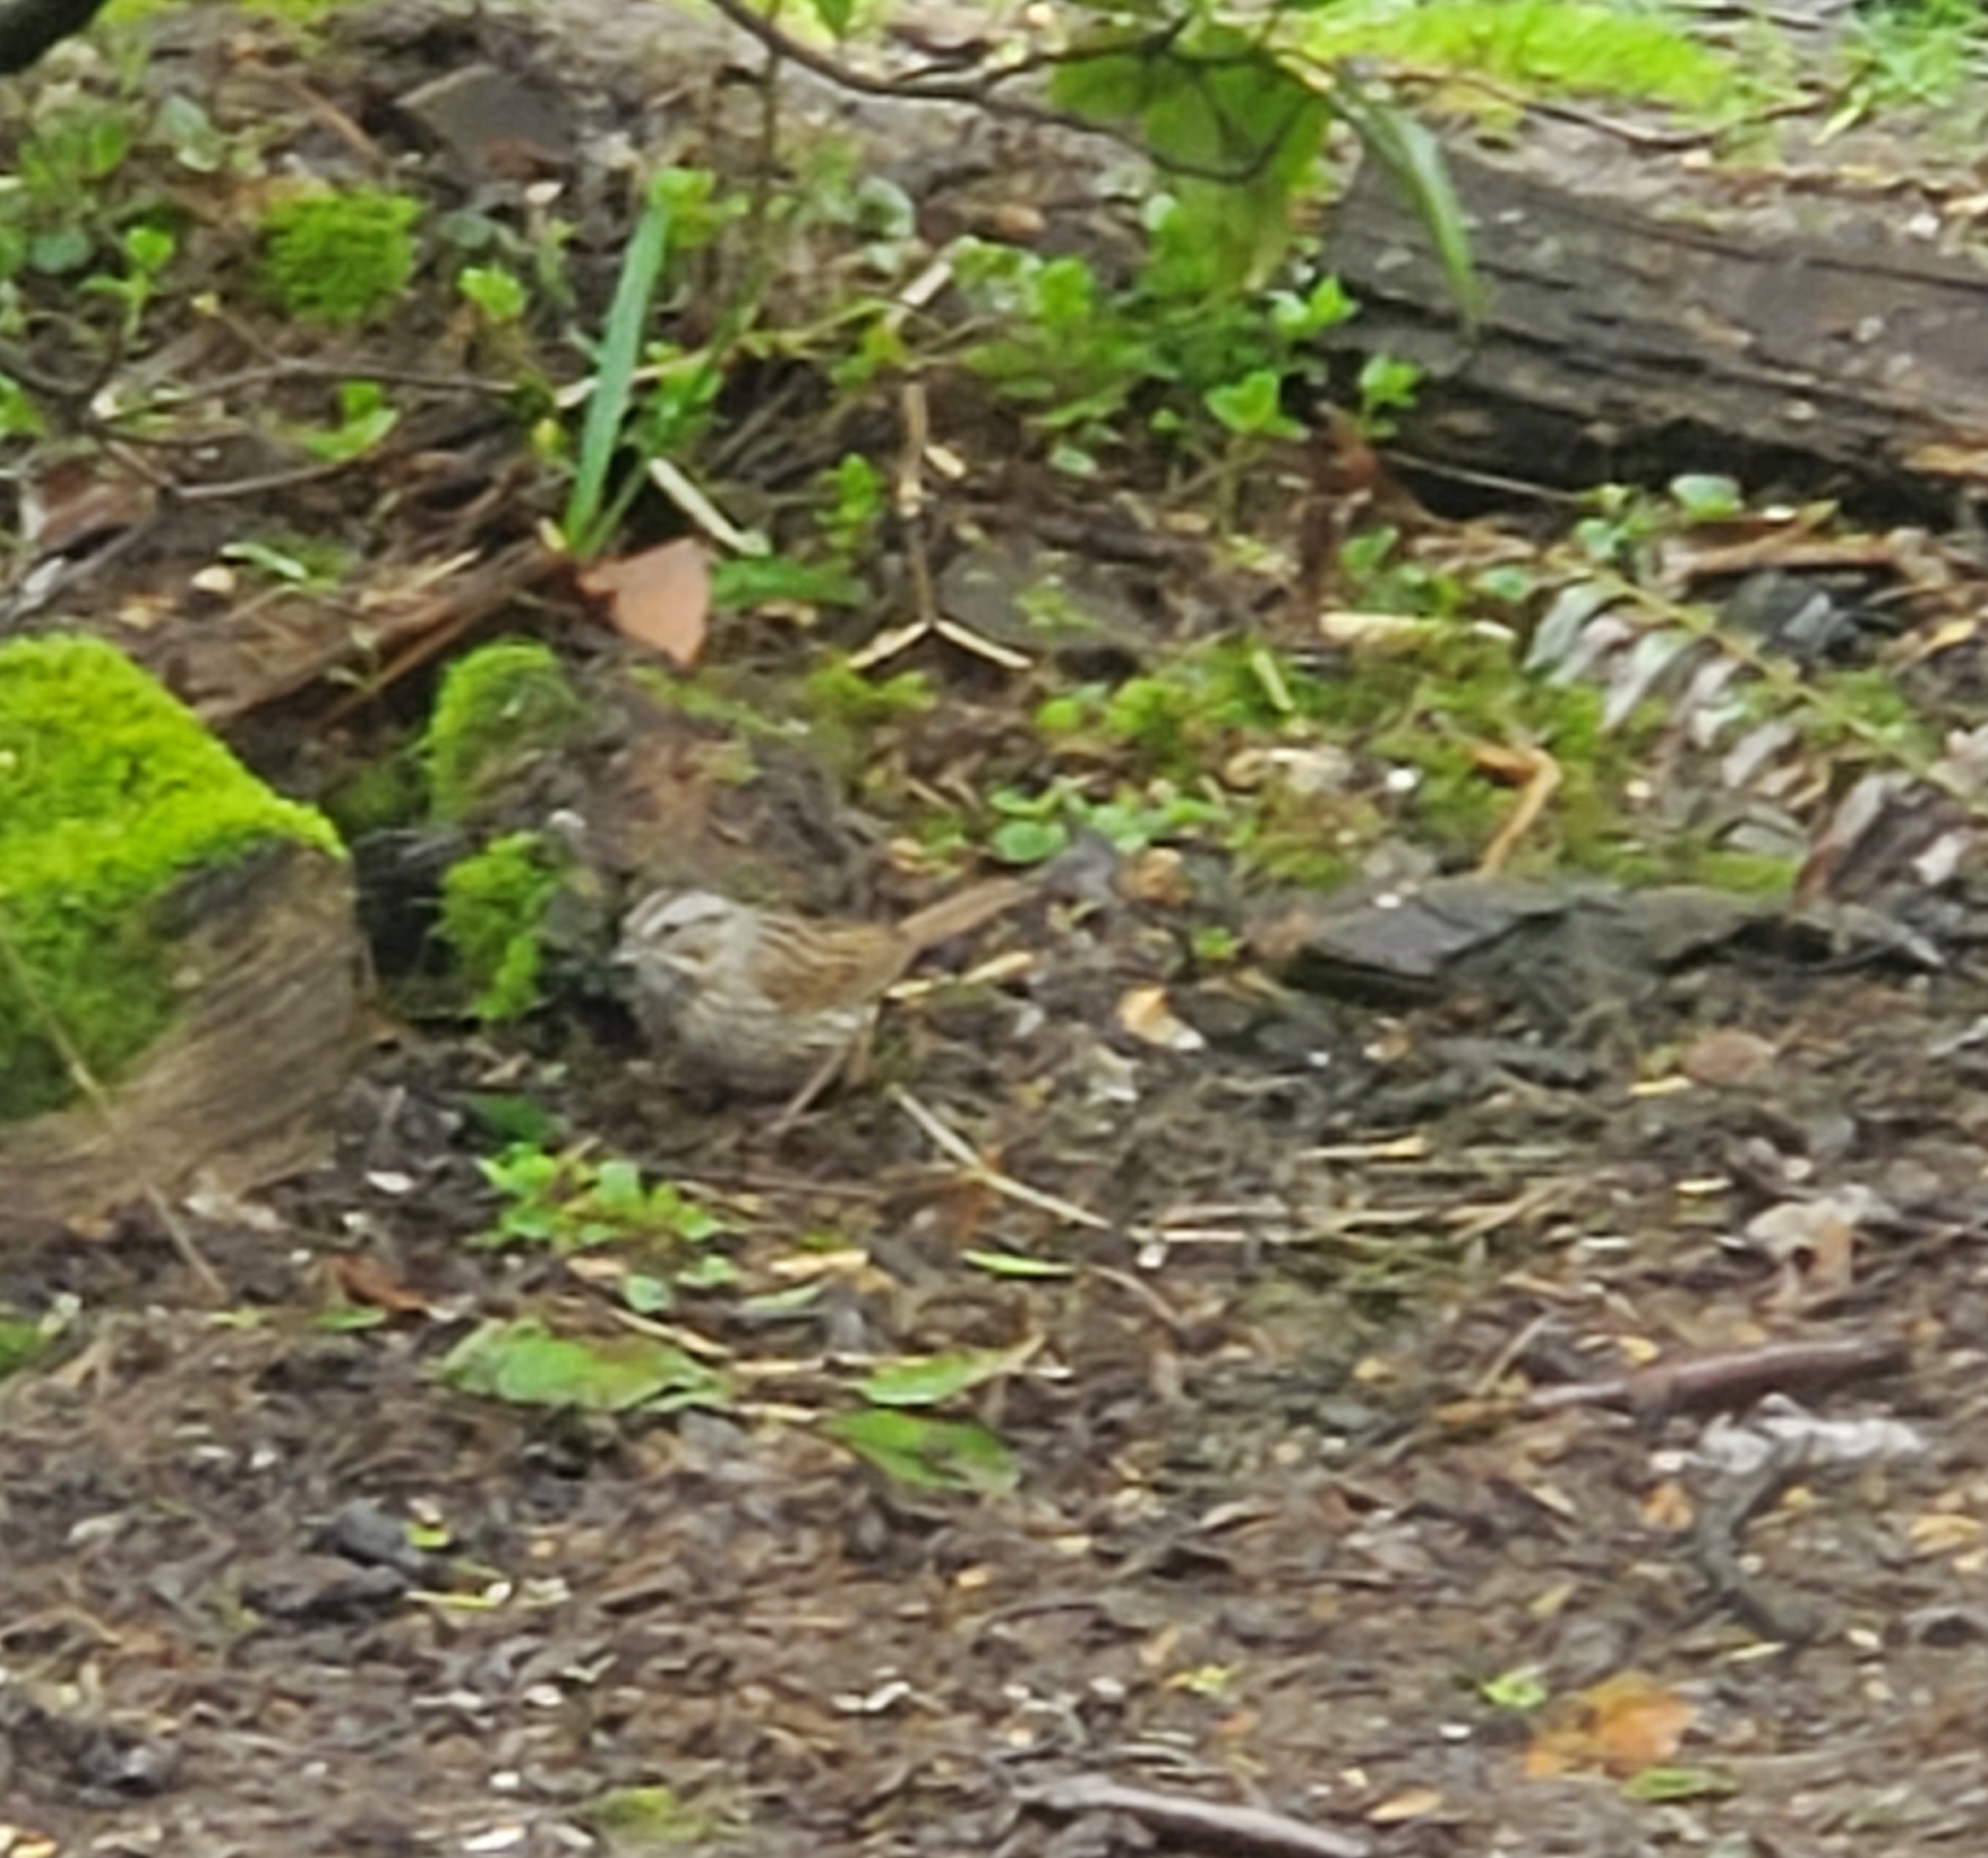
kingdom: Animalia
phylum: Chordata
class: Aves
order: Passeriformes
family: Passerellidae
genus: Melospiza
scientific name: Melospiza melodia
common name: Song sparrow
